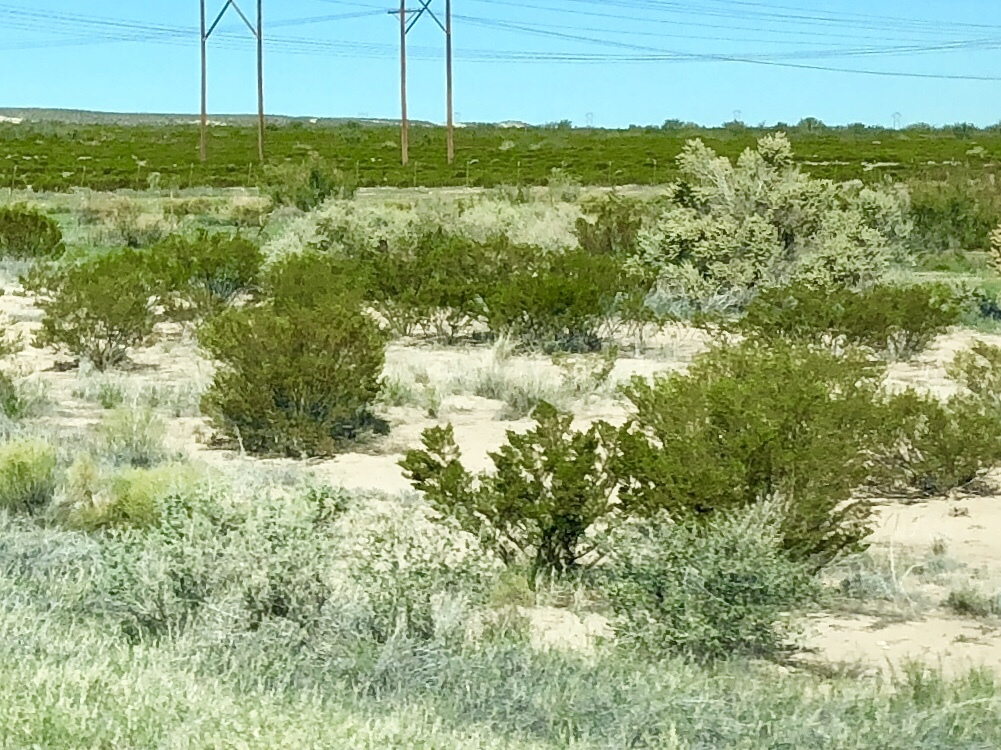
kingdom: Plantae
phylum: Tracheophyta
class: Magnoliopsida
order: Zygophyllales
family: Zygophyllaceae
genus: Larrea
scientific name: Larrea tridentata
